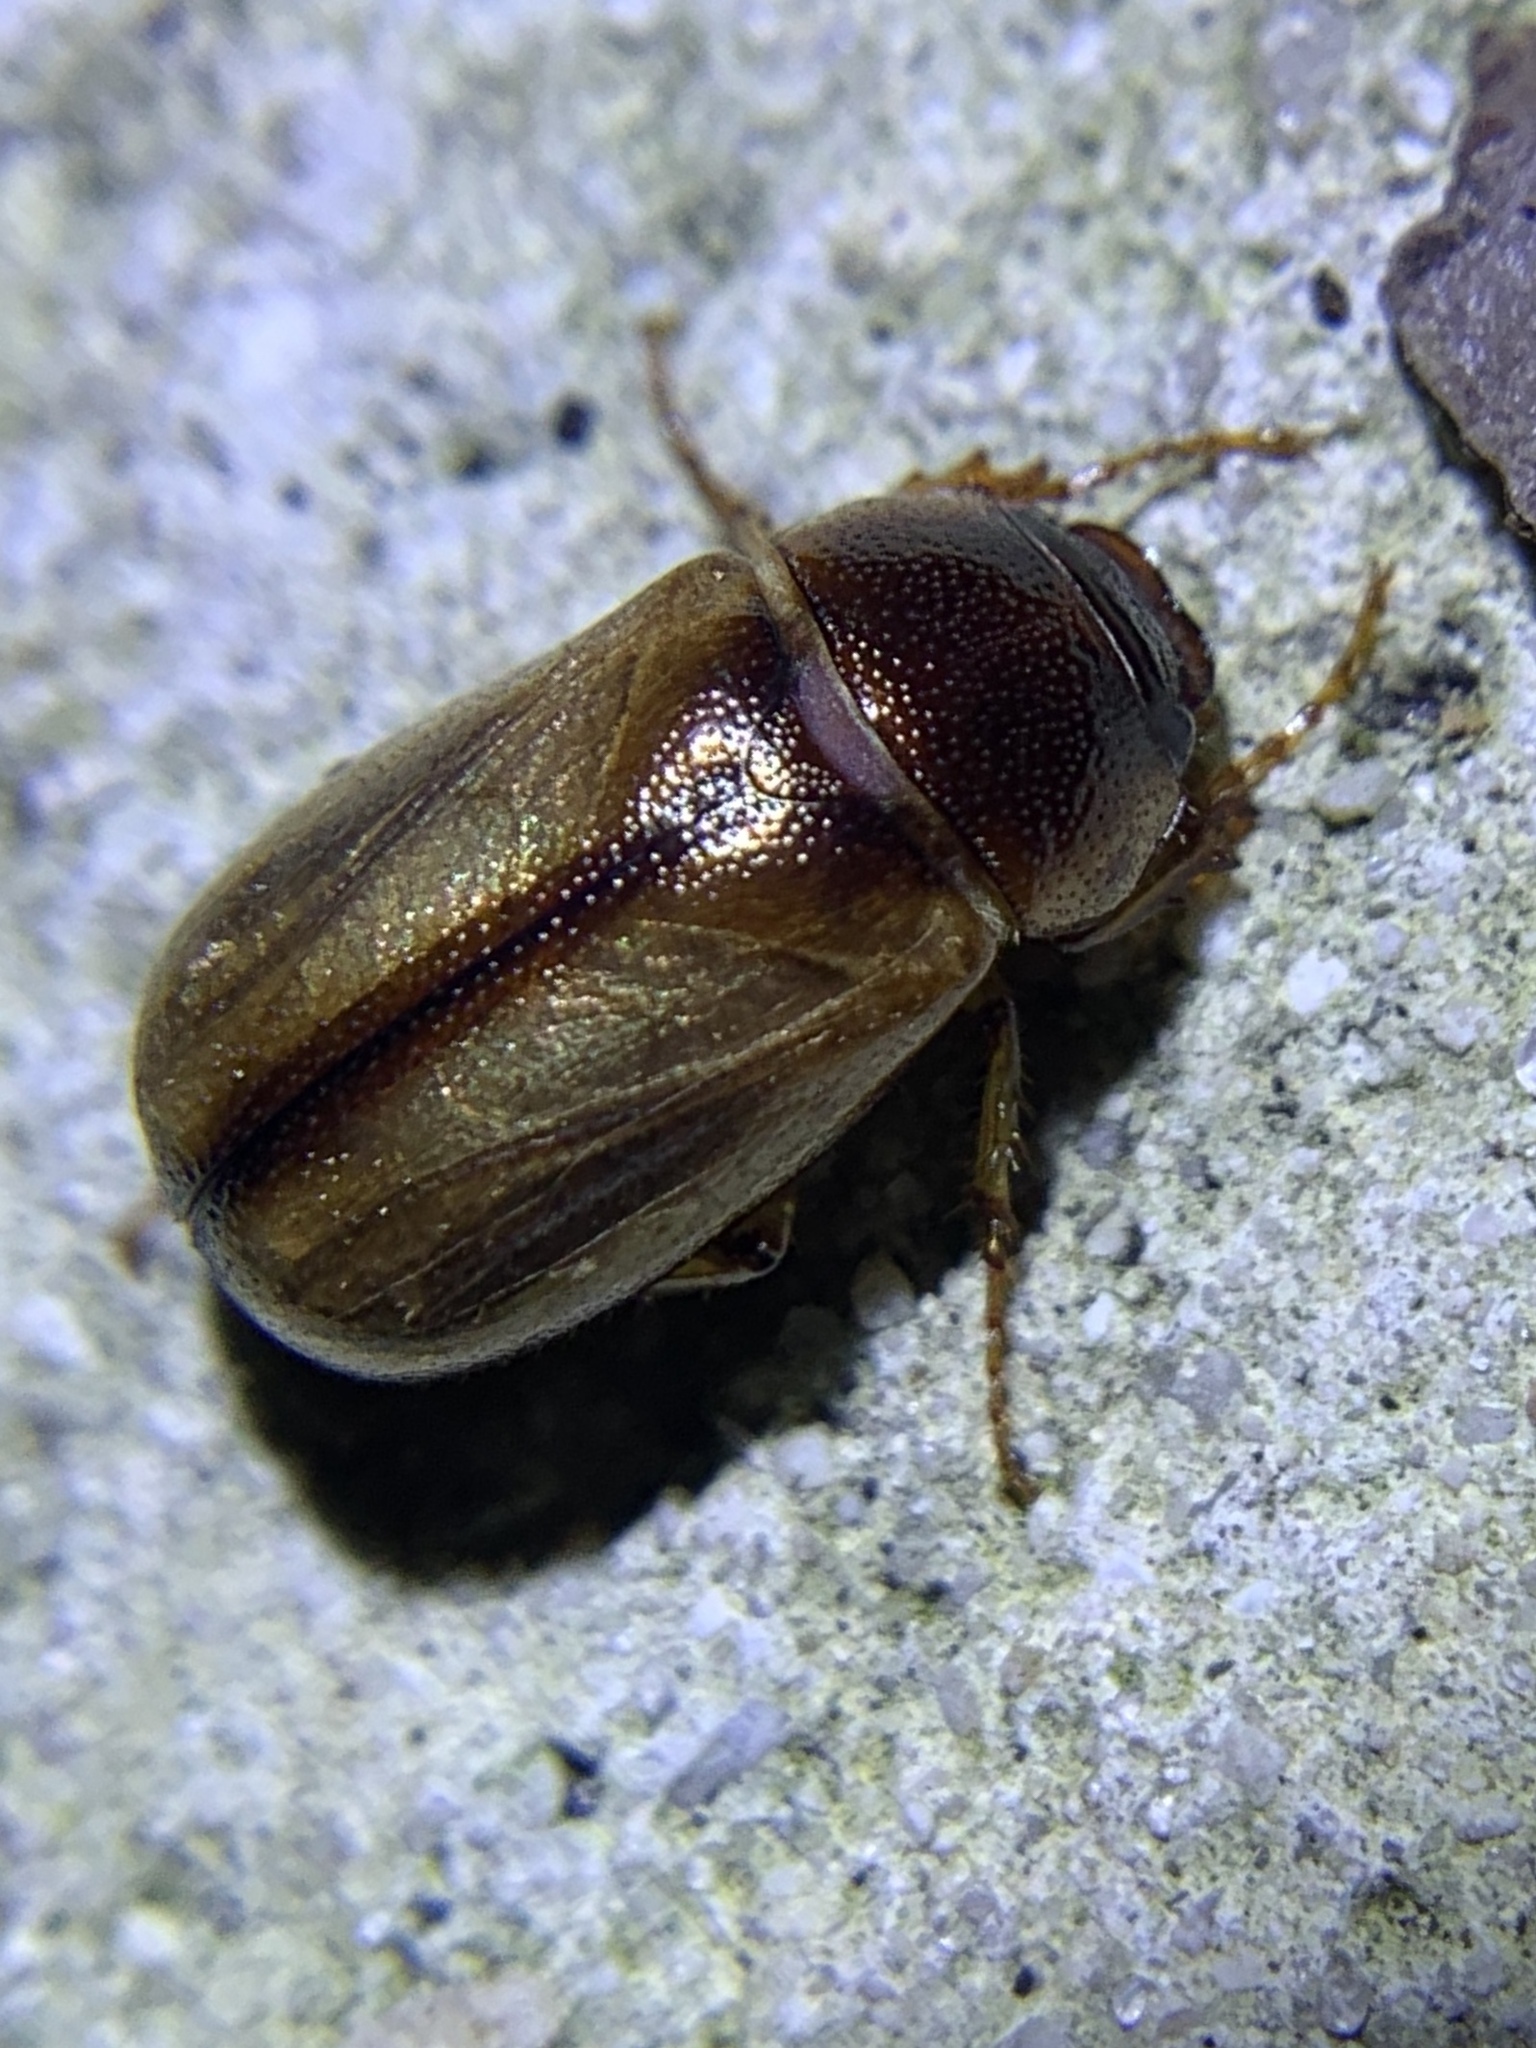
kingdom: Animalia
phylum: Arthropoda
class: Insecta
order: Coleoptera
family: Scarabaeidae
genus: Phyllophaga
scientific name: Phyllophaga bruneri
